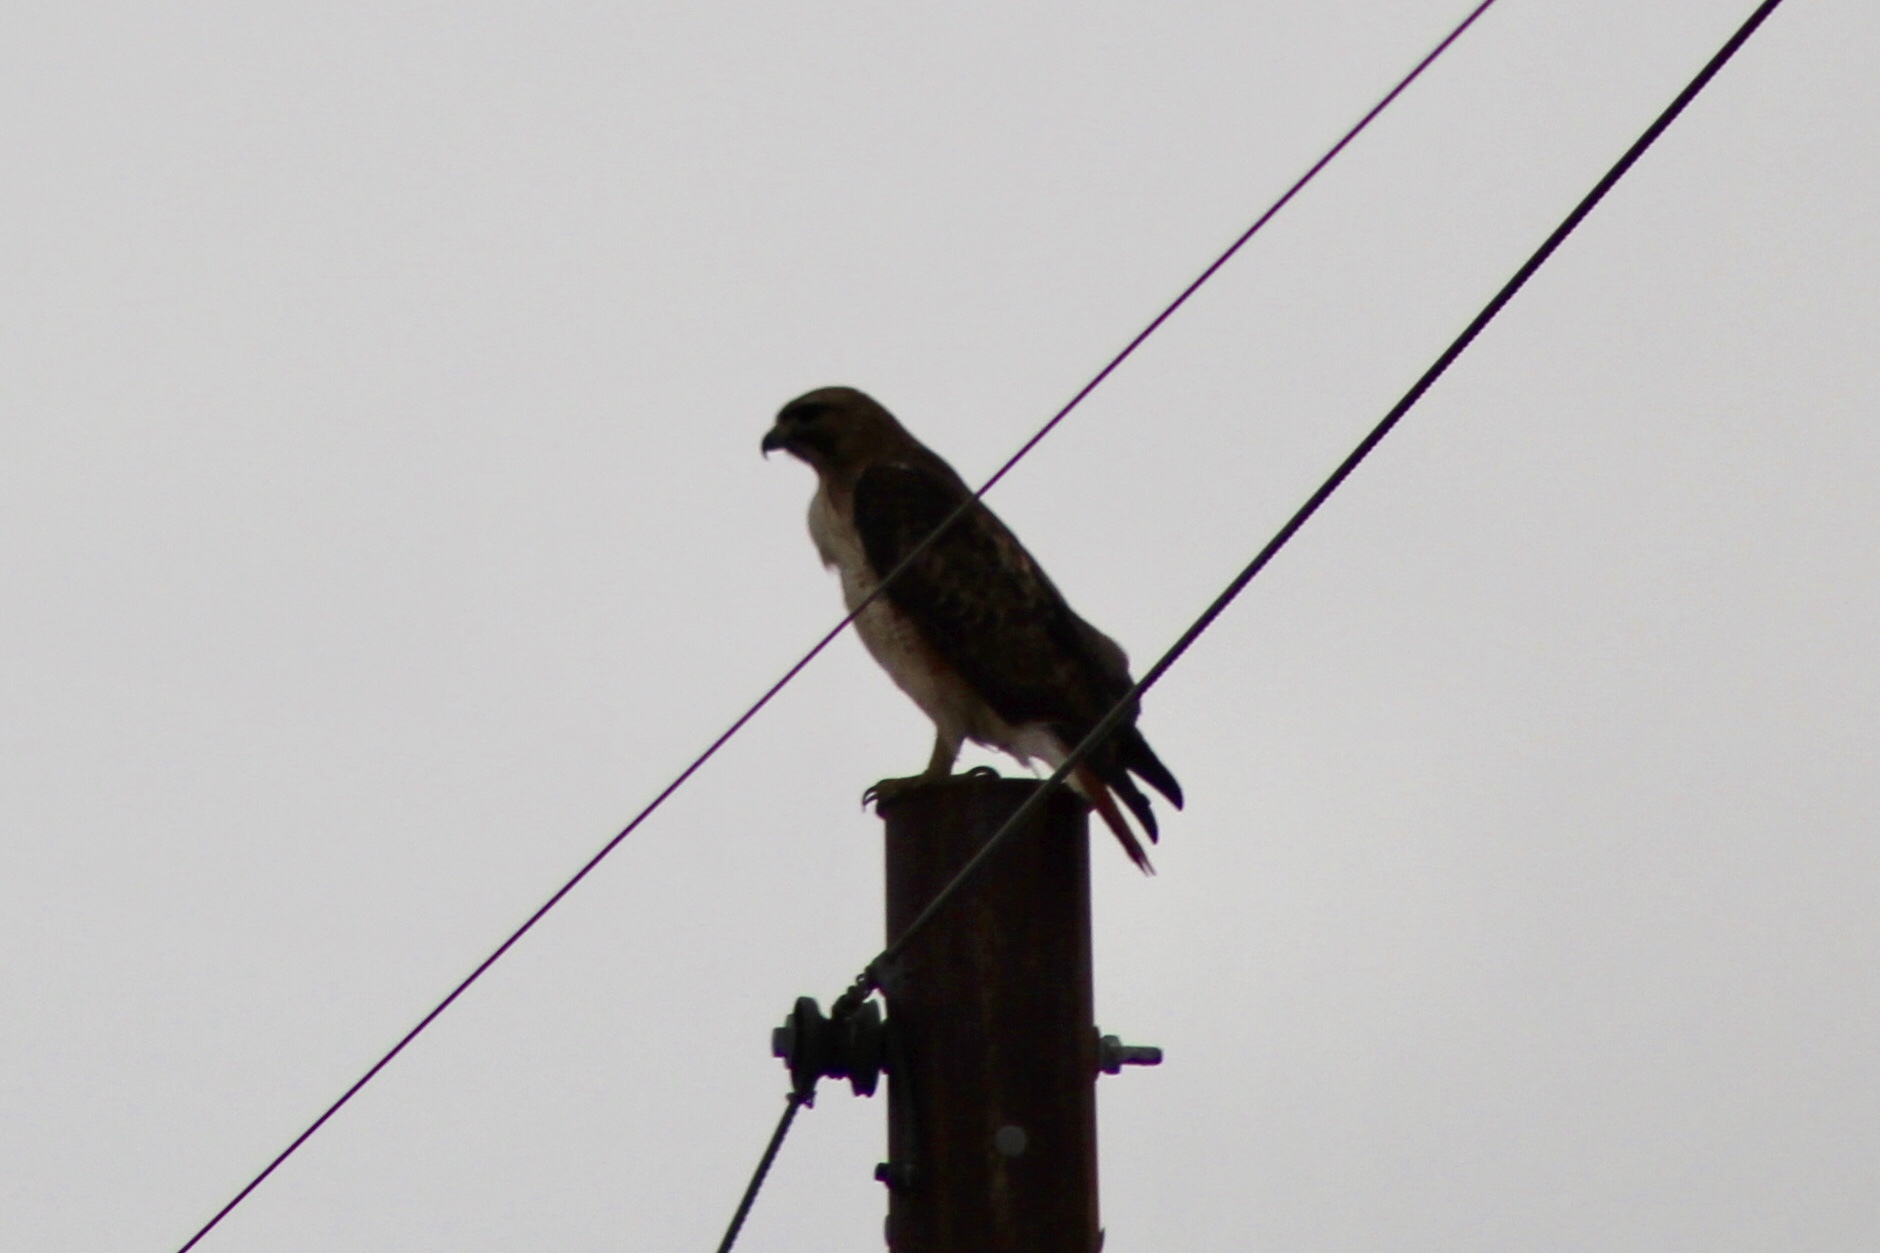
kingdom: Animalia
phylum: Chordata
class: Aves
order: Accipitriformes
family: Accipitridae
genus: Buteo
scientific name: Buteo jamaicensis
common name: Red-tailed hawk
